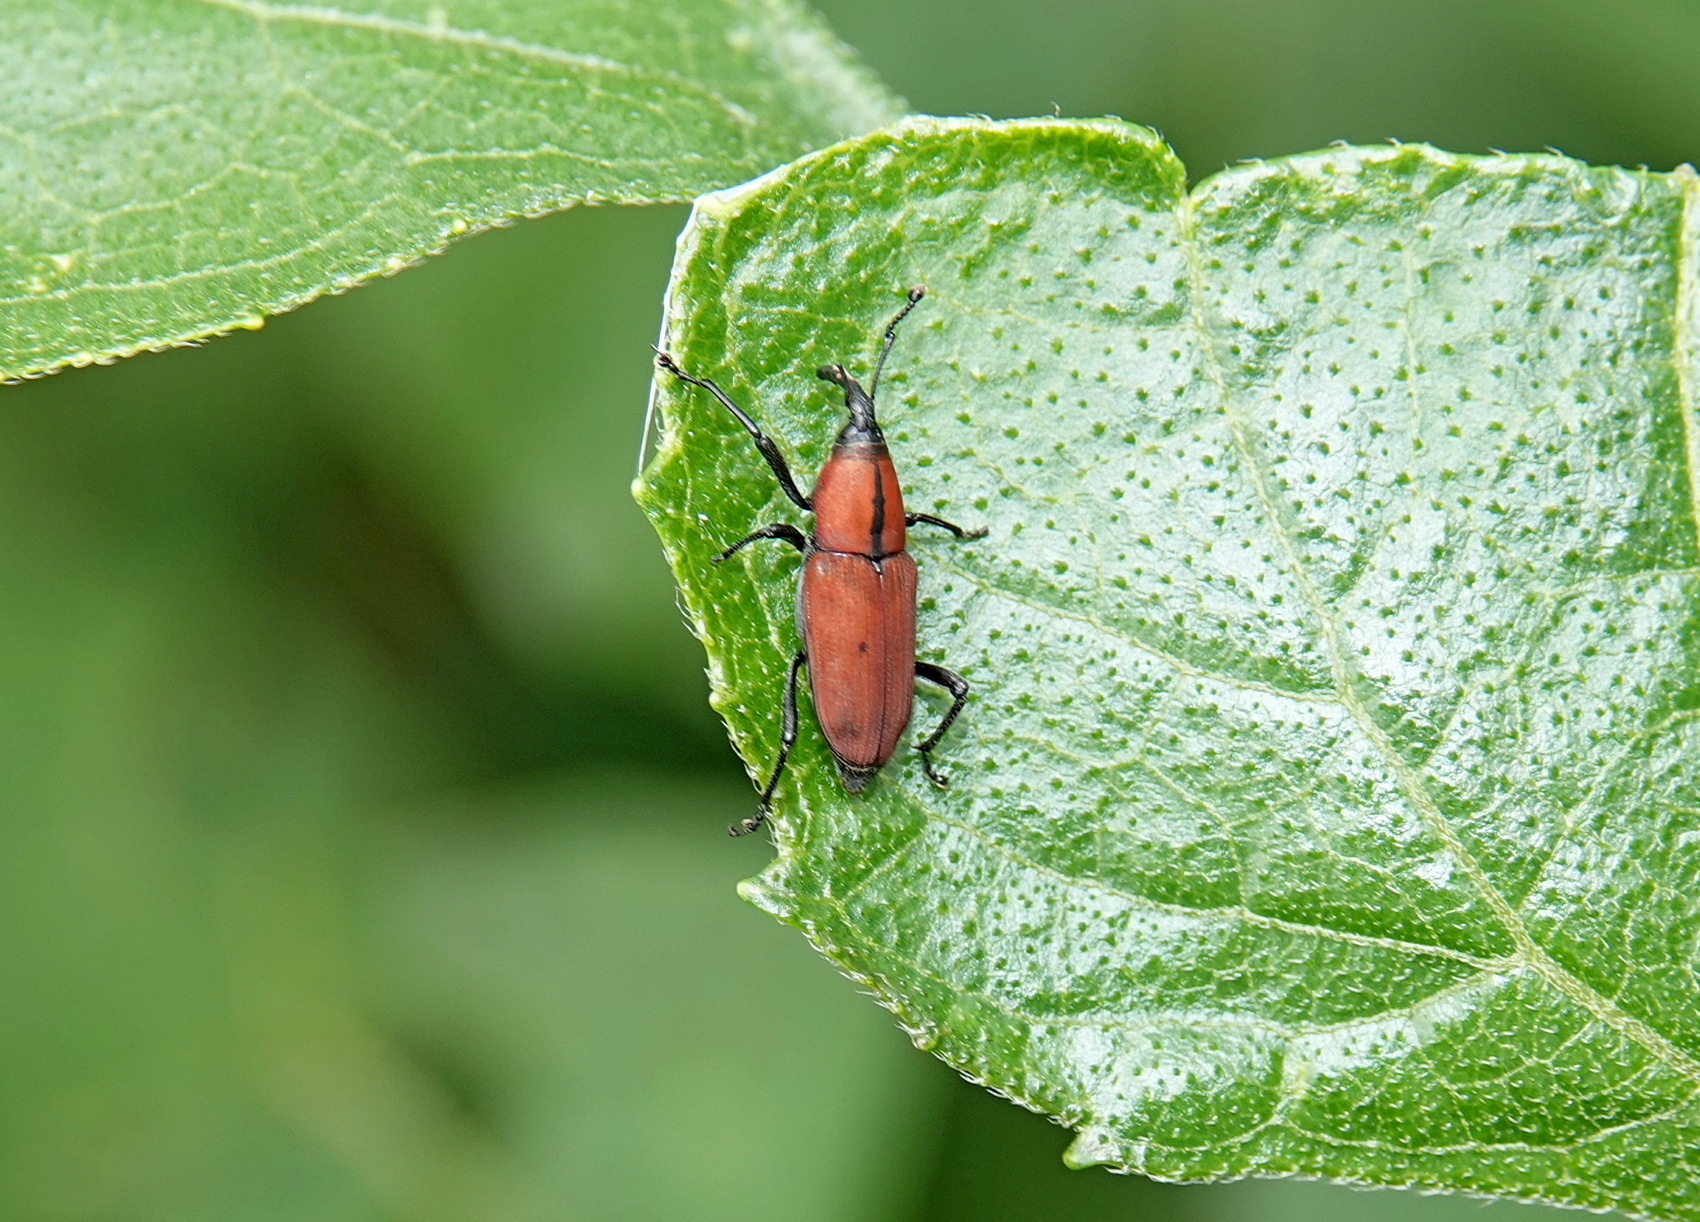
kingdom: Animalia
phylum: Arthropoda
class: Insecta
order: Coleoptera
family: Dryophthoridae
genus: Rhodobaenus
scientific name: Rhodobaenus sanguineus
